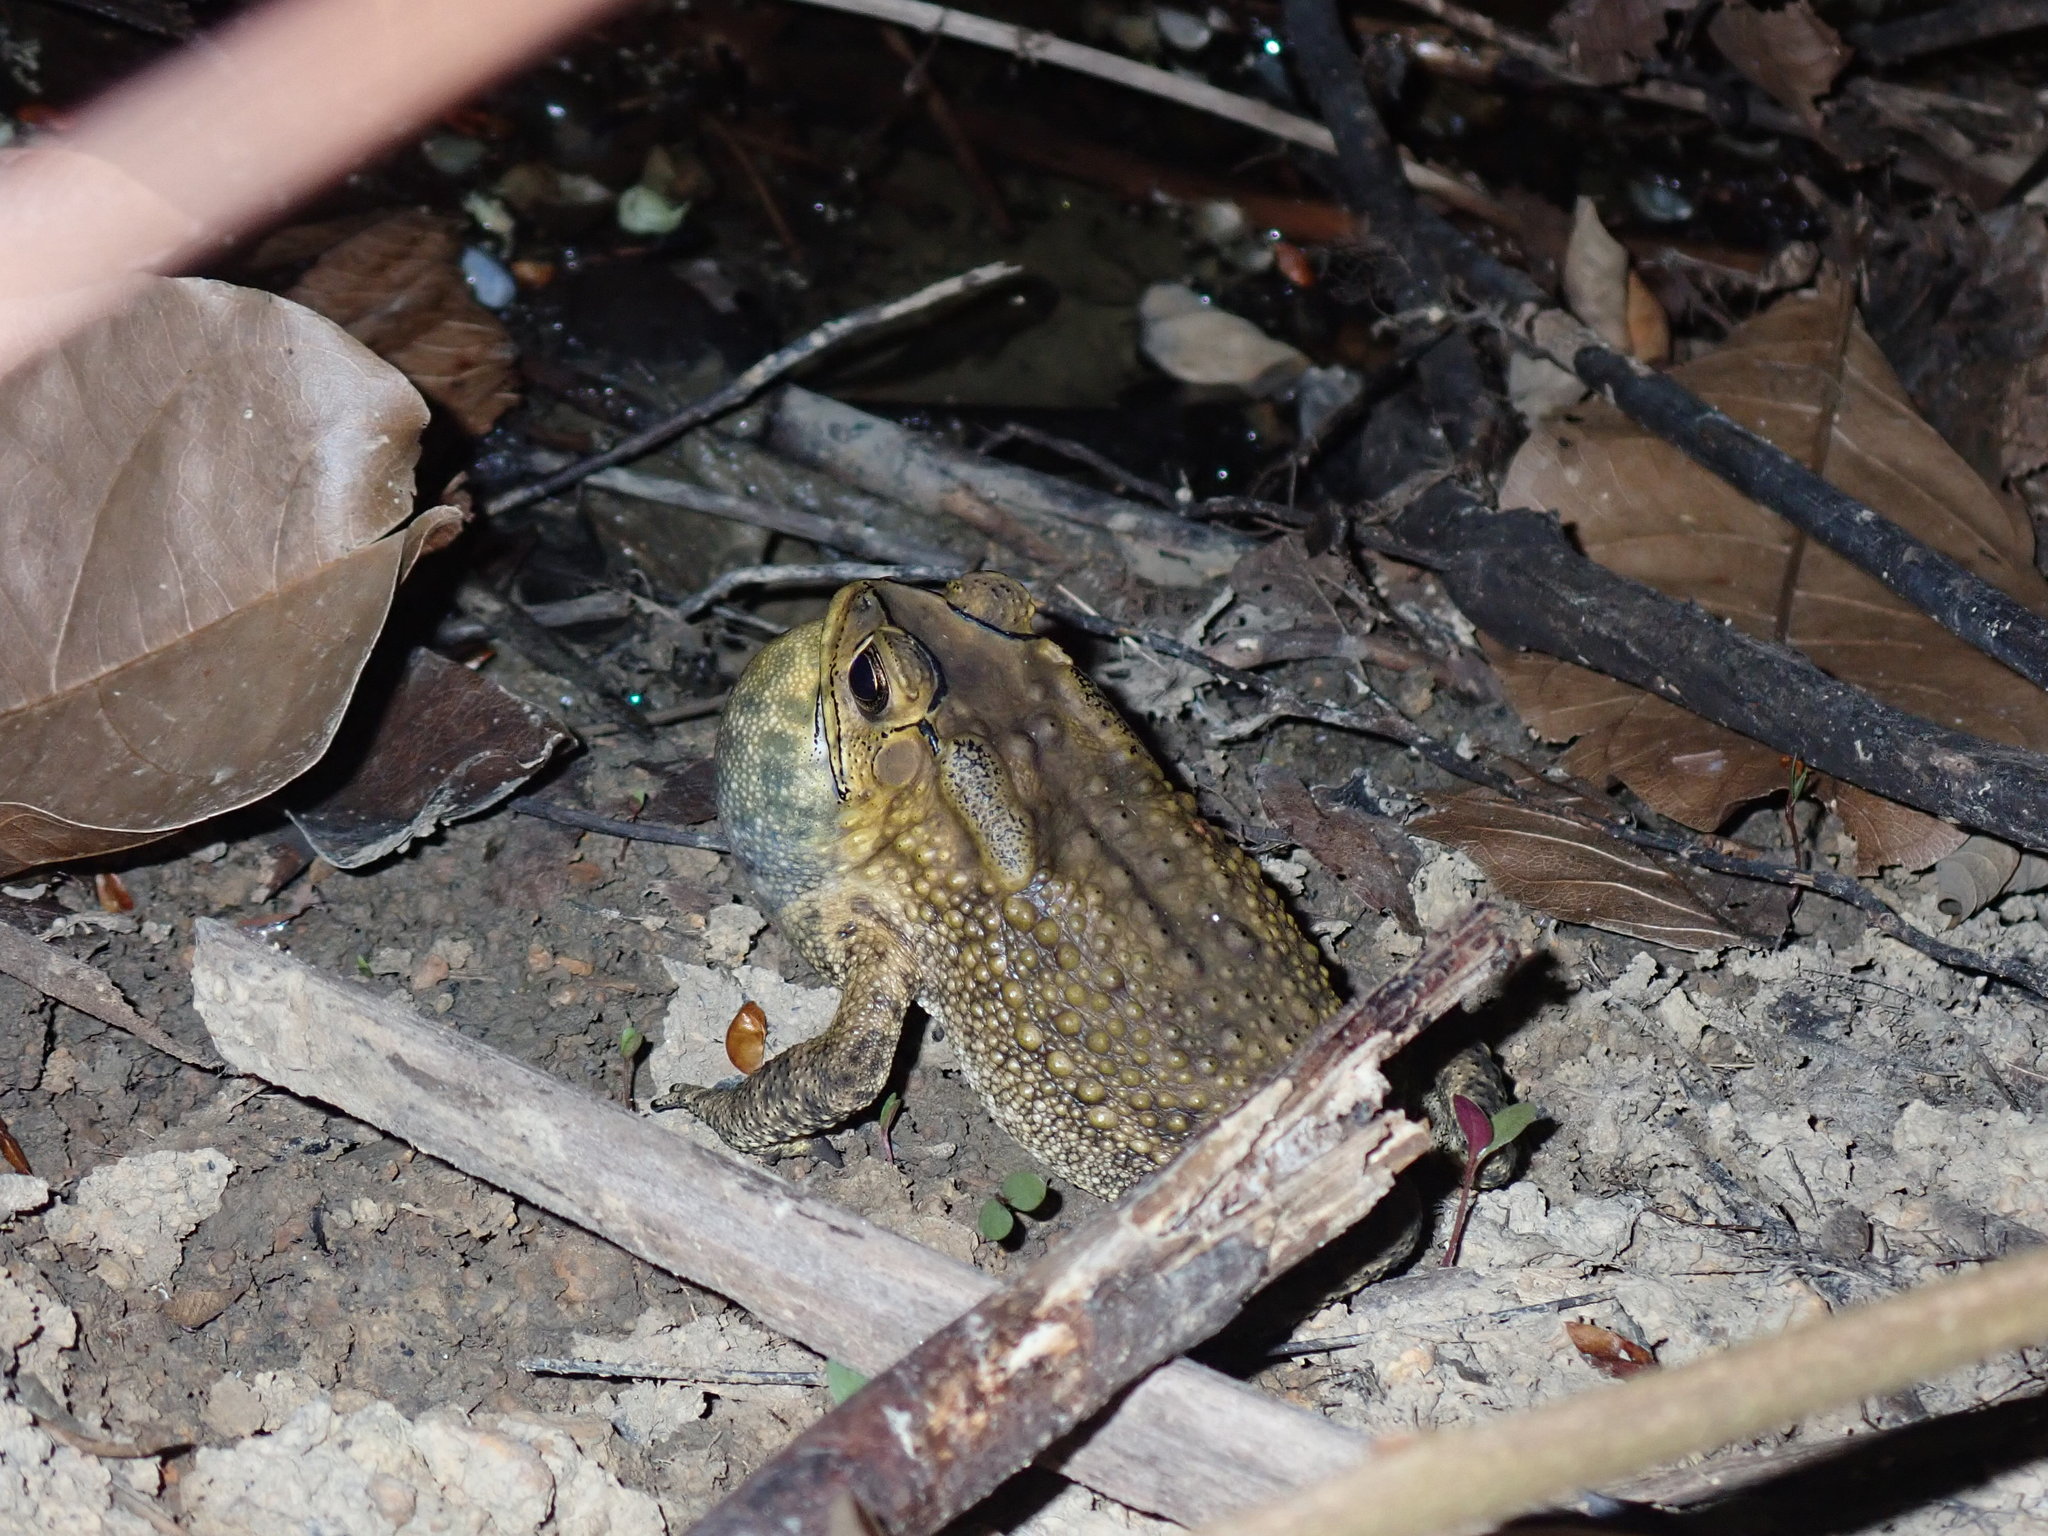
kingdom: Animalia
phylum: Chordata
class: Amphibia
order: Anura
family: Bufonidae
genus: Duttaphrynus
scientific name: Duttaphrynus melanostictus
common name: Common sunda toad
